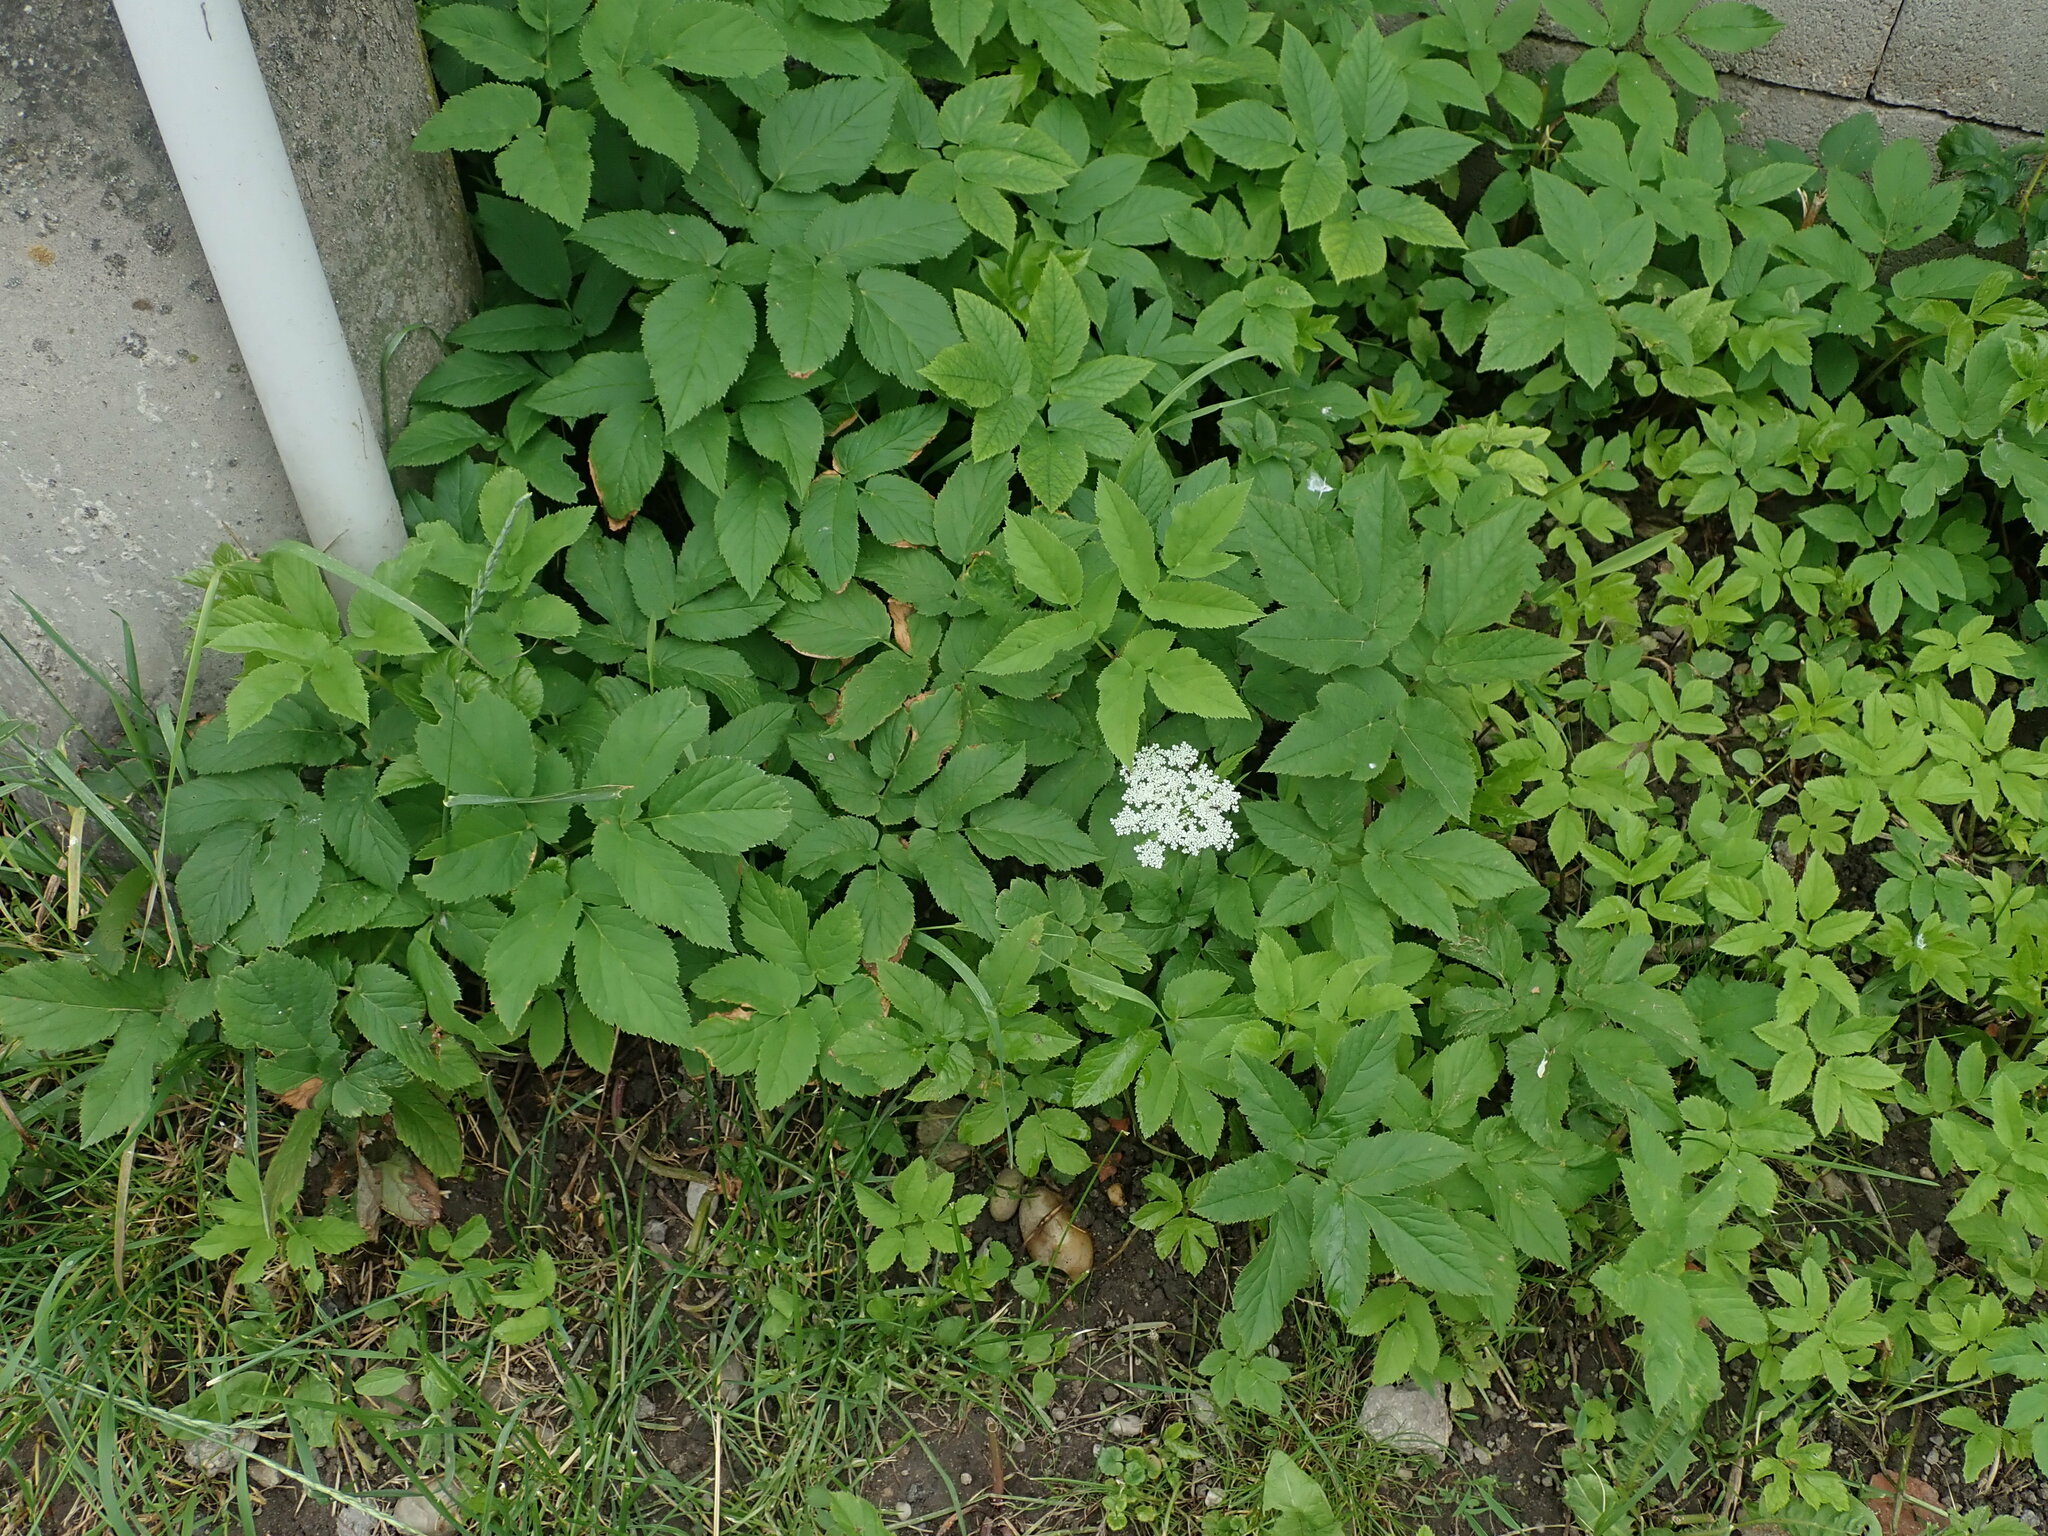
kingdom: Plantae
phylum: Tracheophyta
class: Magnoliopsida
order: Apiales
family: Apiaceae
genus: Aegopodium
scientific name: Aegopodium podagraria
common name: Ground-elder
